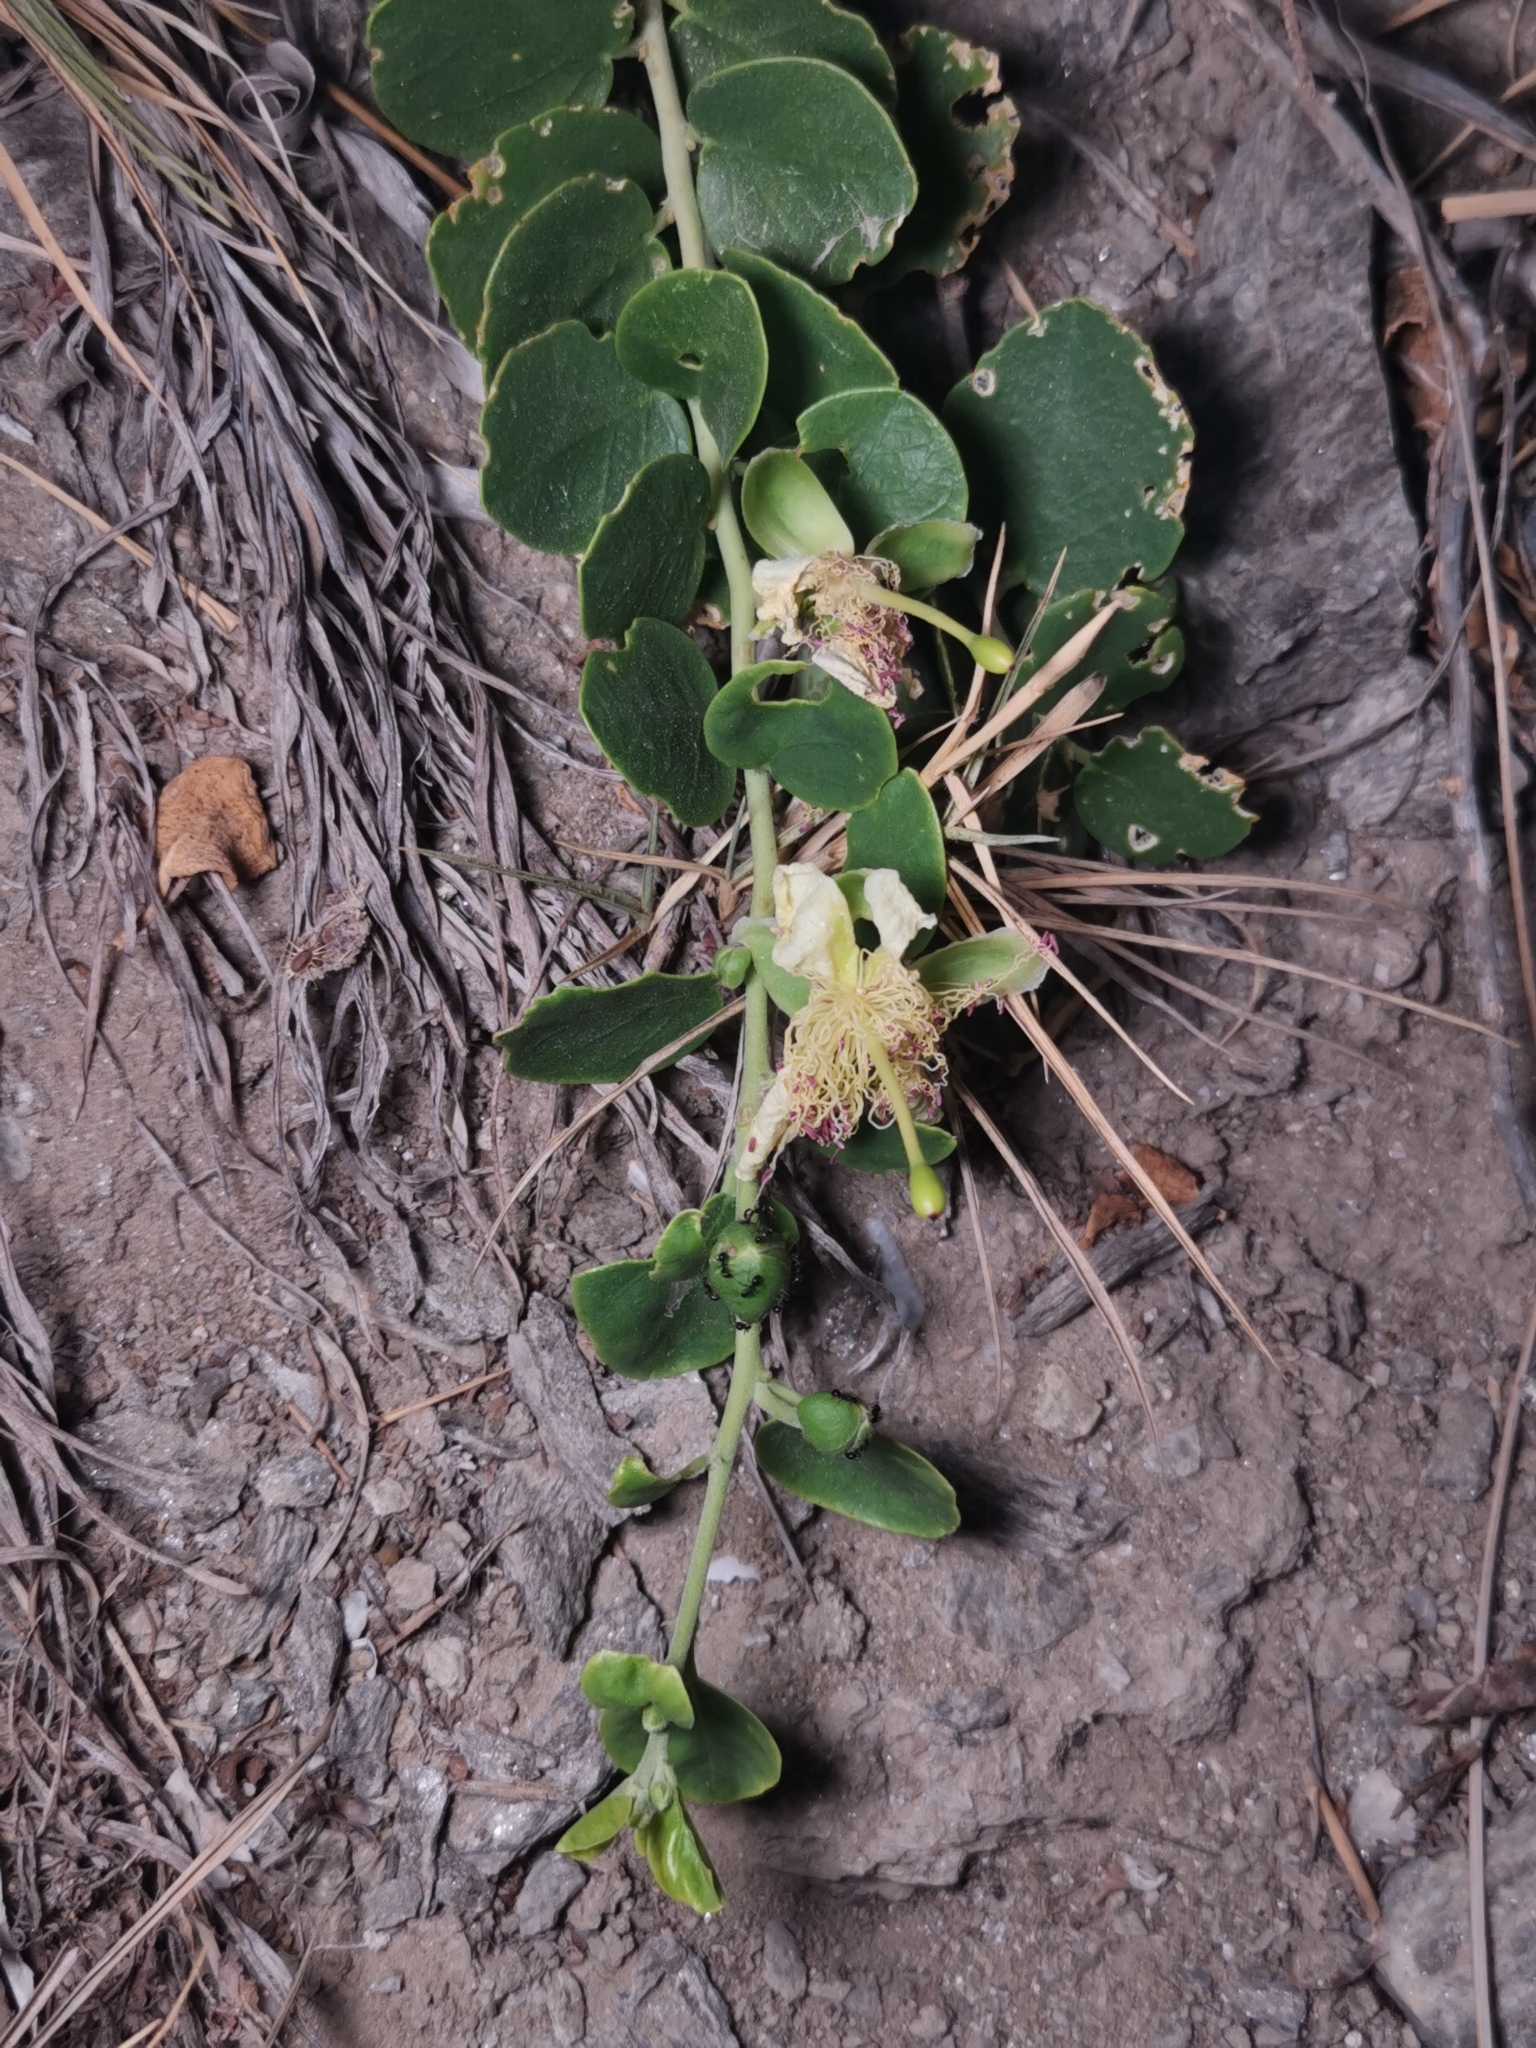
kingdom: Plantae
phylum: Tracheophyta
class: Magnoliopsida
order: Brassicales
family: Capparaceae
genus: Capparis
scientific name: Capparis spinosa
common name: Caper
